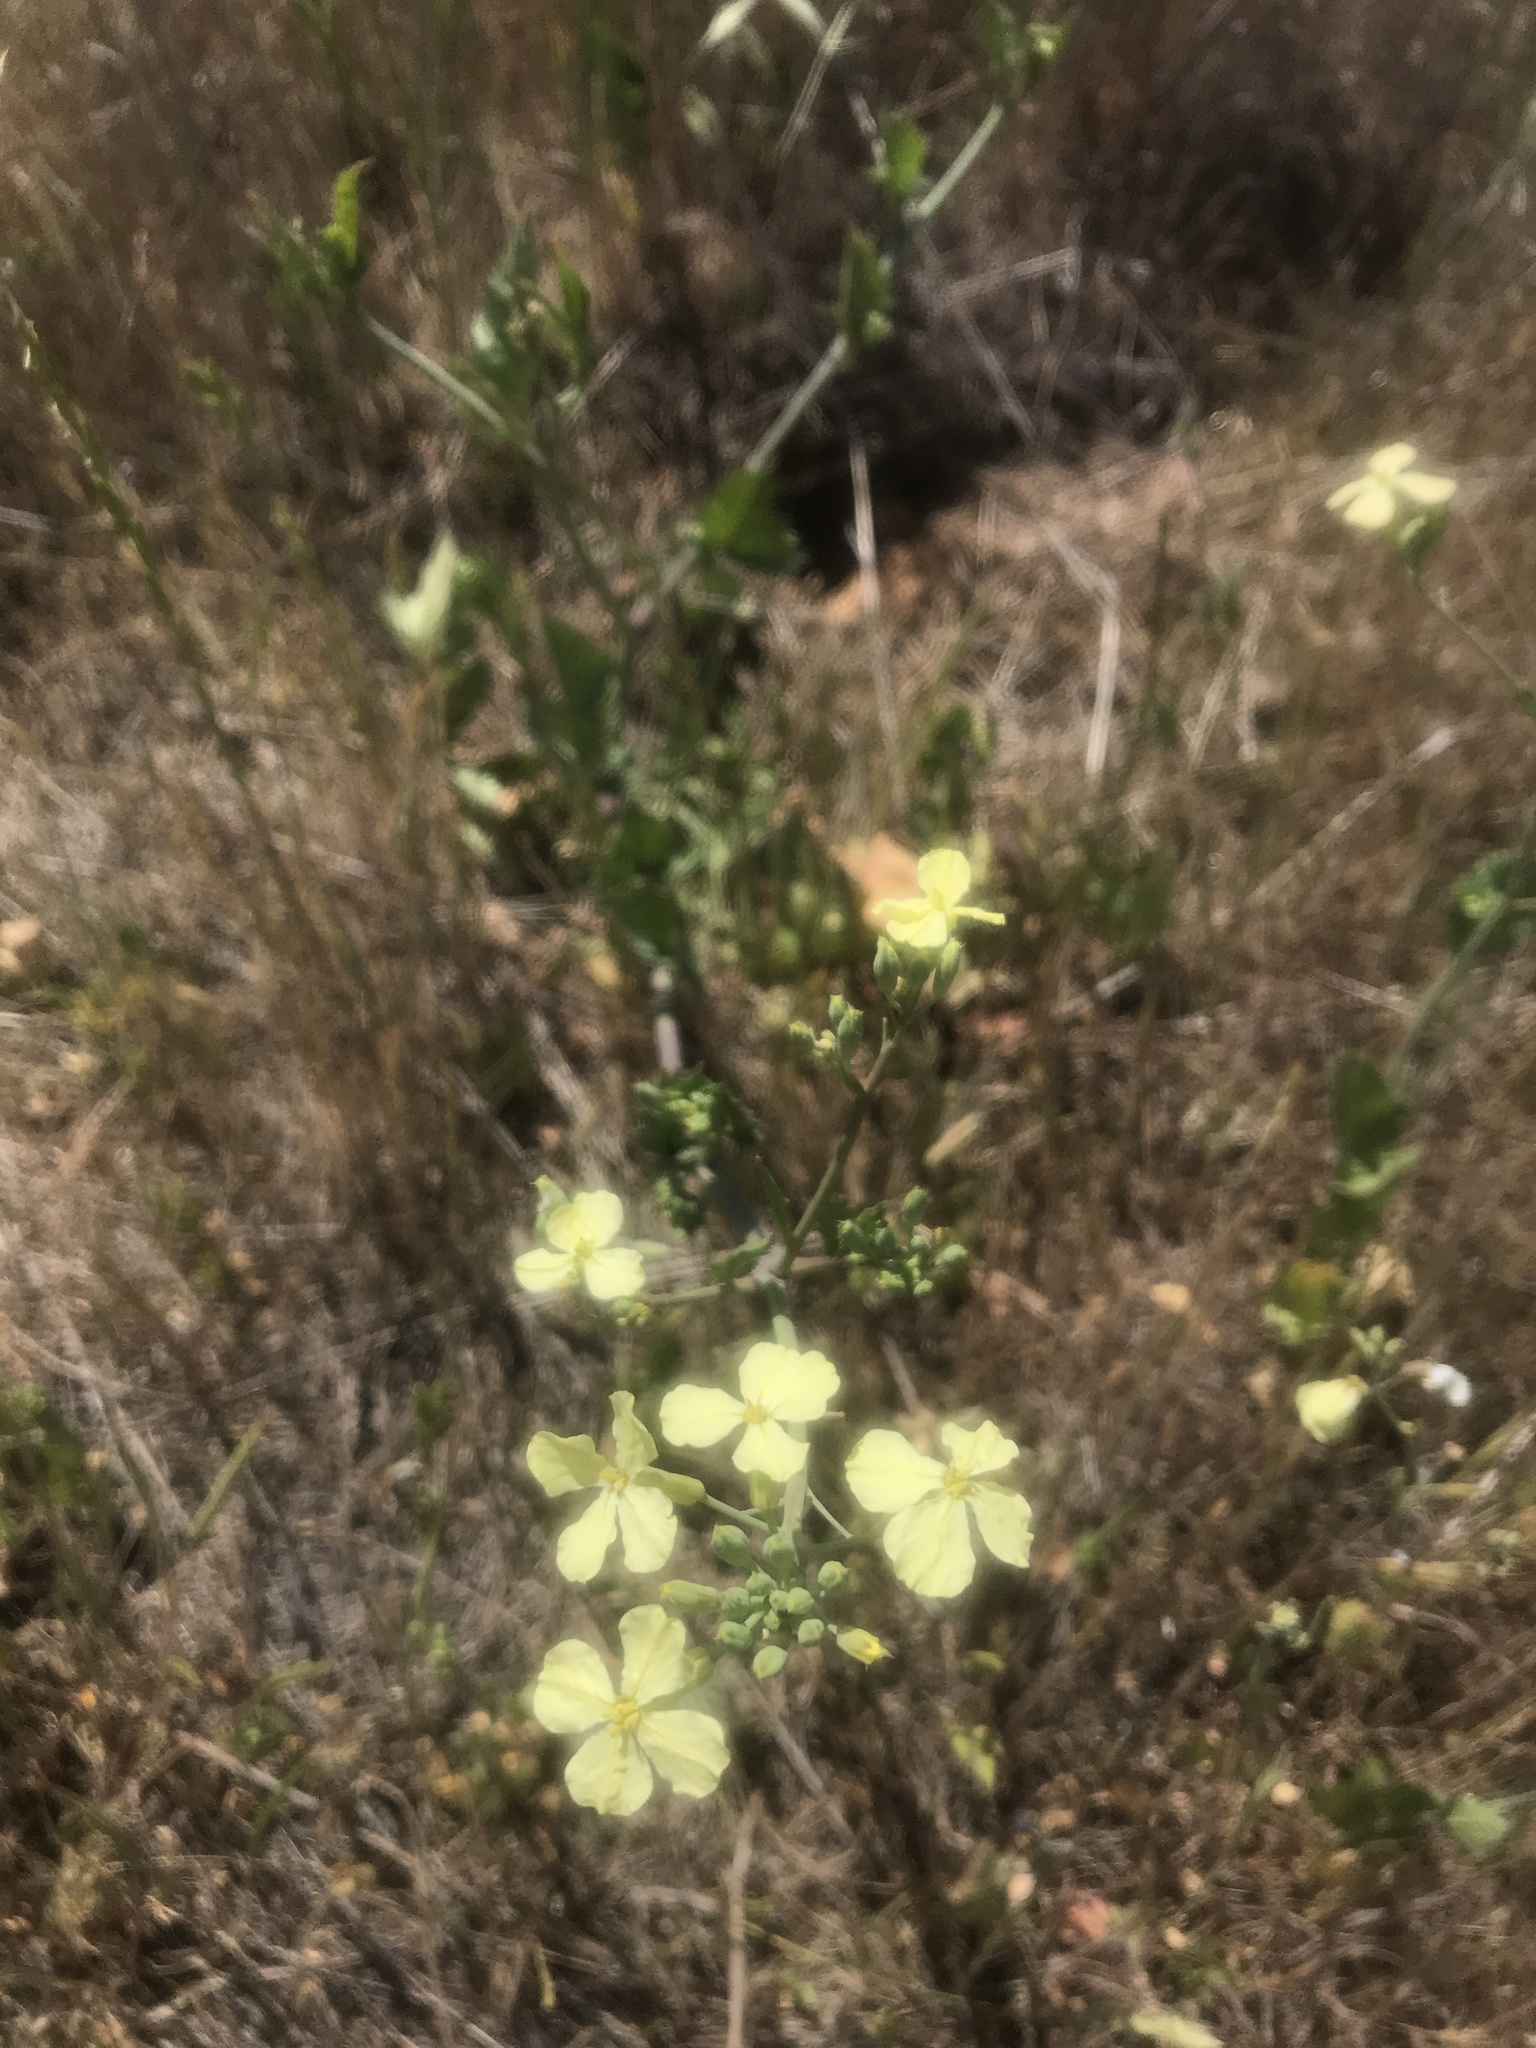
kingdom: Plantae
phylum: Tracheophyta
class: Magnoliopsida
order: Brassicales
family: Brassicaceae
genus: Raphanus
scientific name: Raphanus raphanistrum
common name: Wild radish
